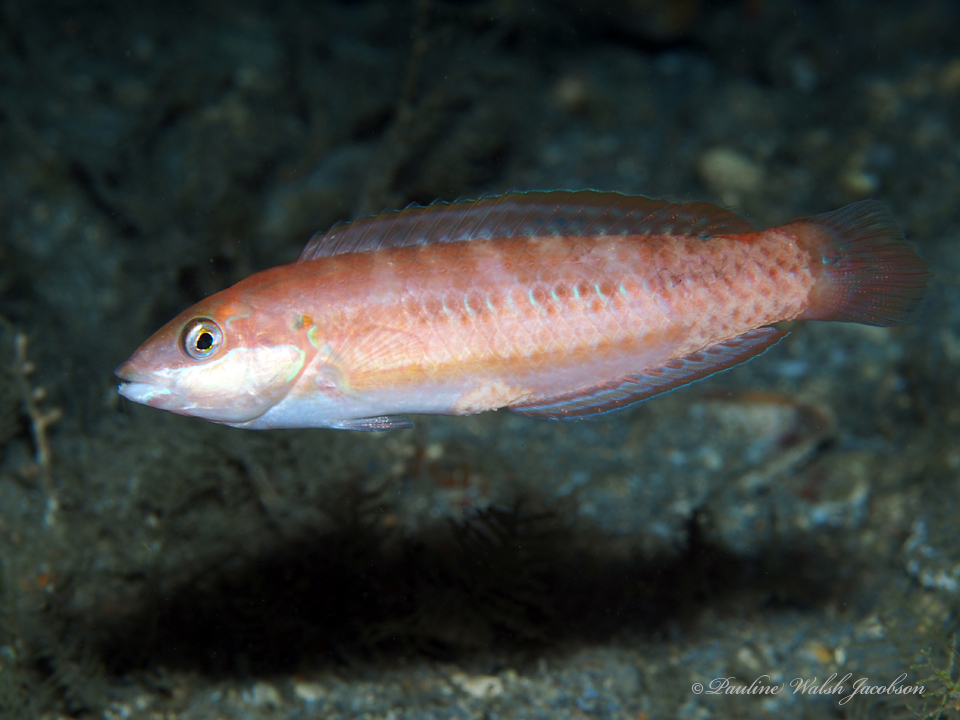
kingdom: Animalia
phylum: Chordata
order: Perciformes
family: Labridae
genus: Halichoeres
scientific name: Halichoeres bivittatus
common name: Slippery dick
